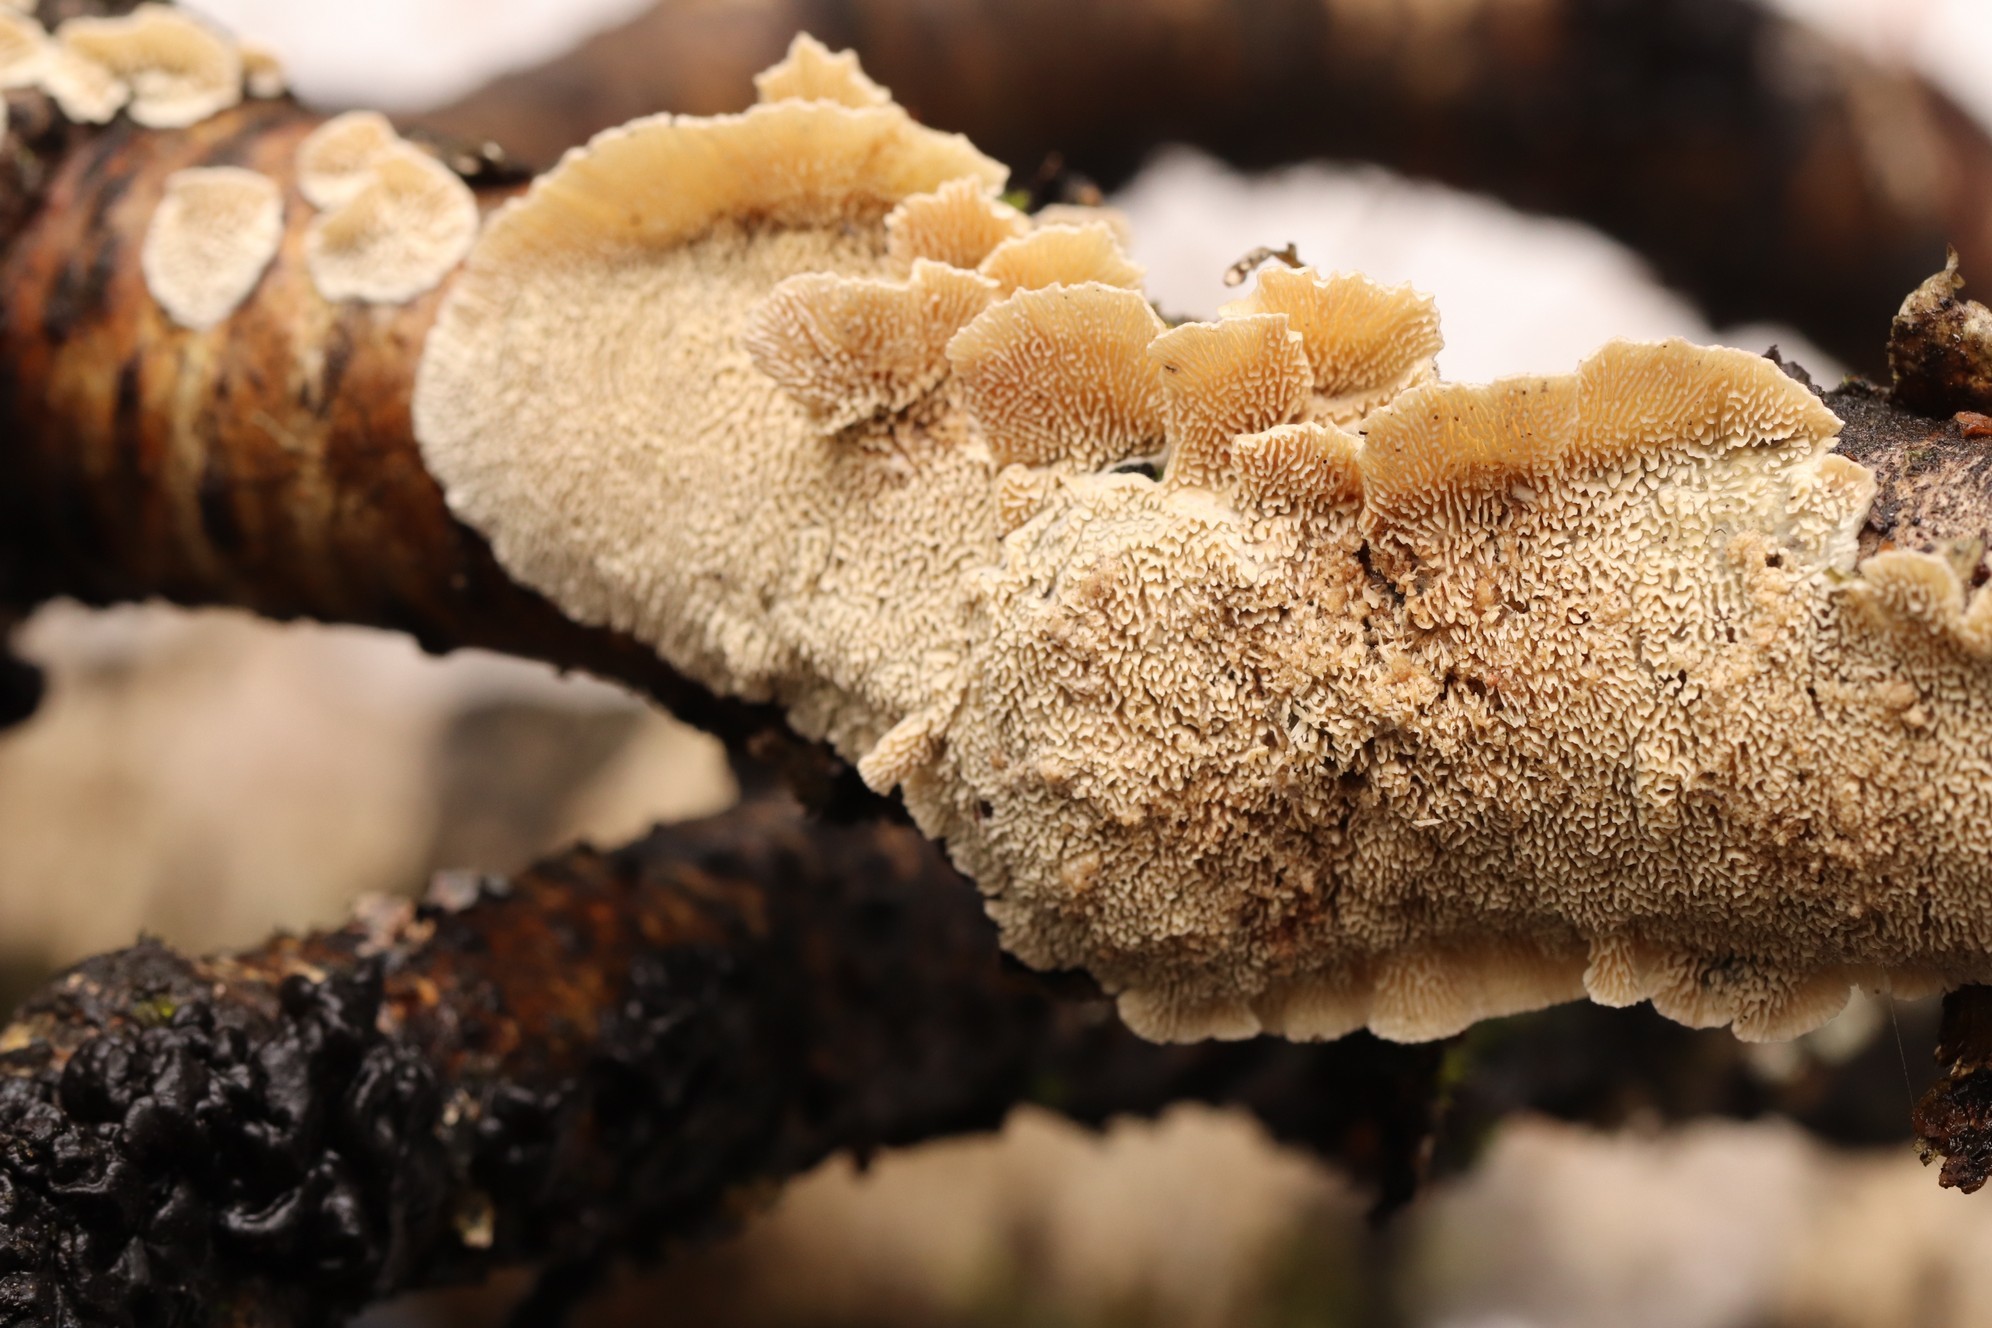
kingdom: Fungi
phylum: Basidiomycota
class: Agaricomycetes
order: Polyporales
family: Irpicaceae
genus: Irpex
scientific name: Irpex lacteus
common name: Milk-white toothed polypore
